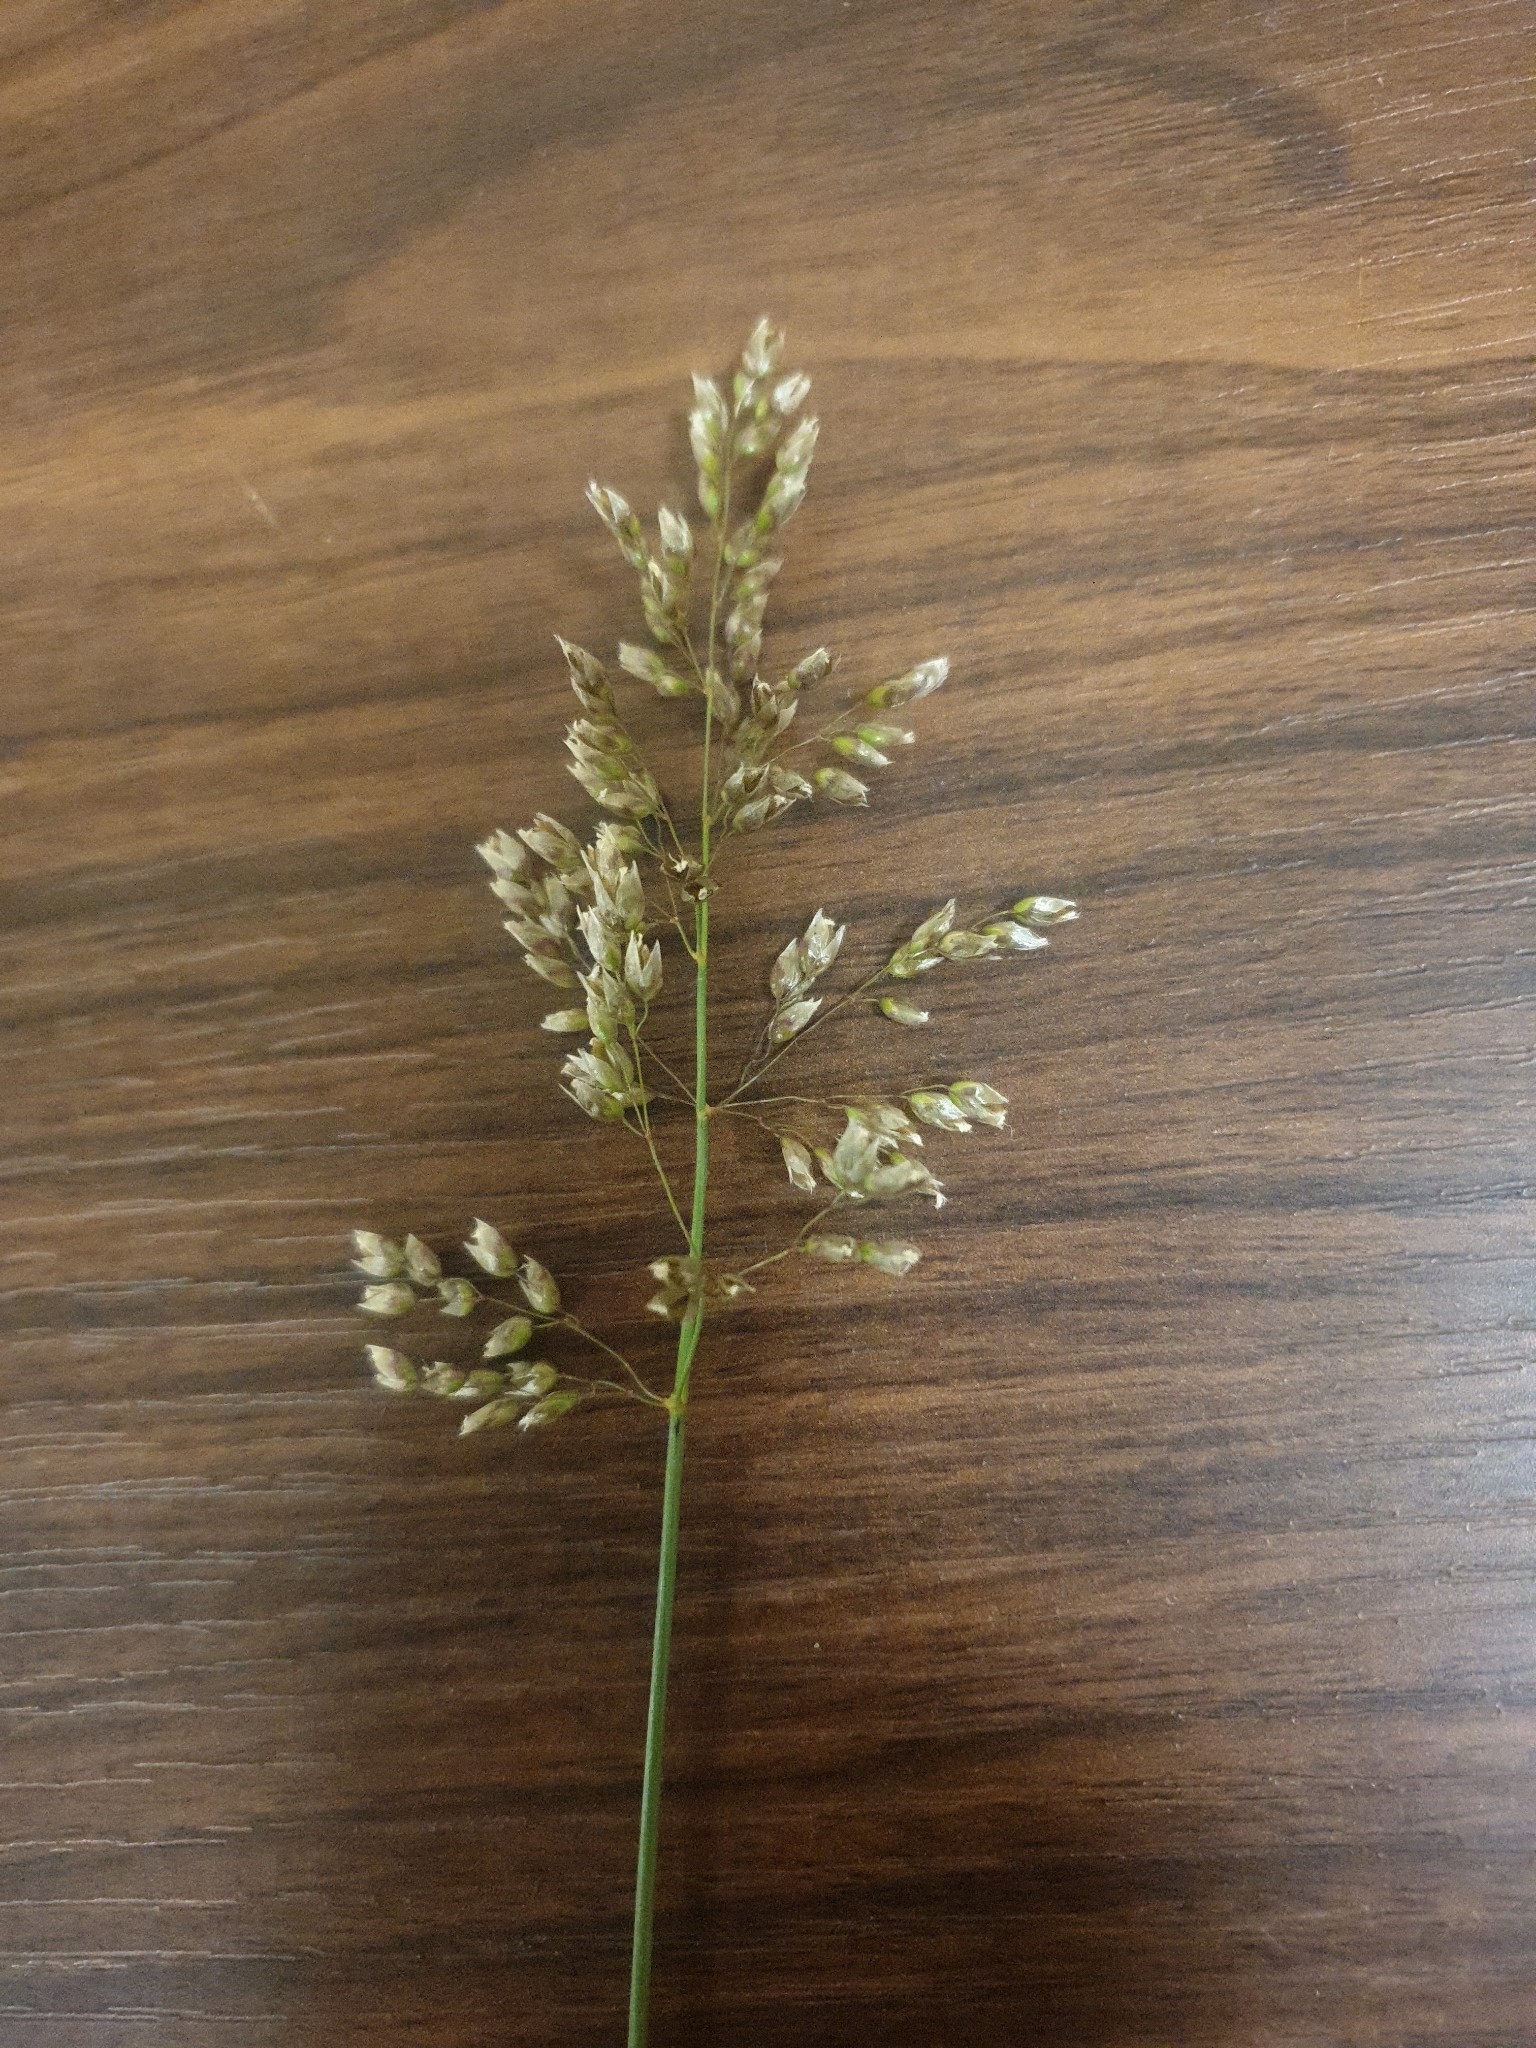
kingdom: Plantae
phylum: Tracheophyta
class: Liliopsida
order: Poales
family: Poaceae
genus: Anthoxanthum
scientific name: Anthoxanthum nitens
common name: Holy grass
